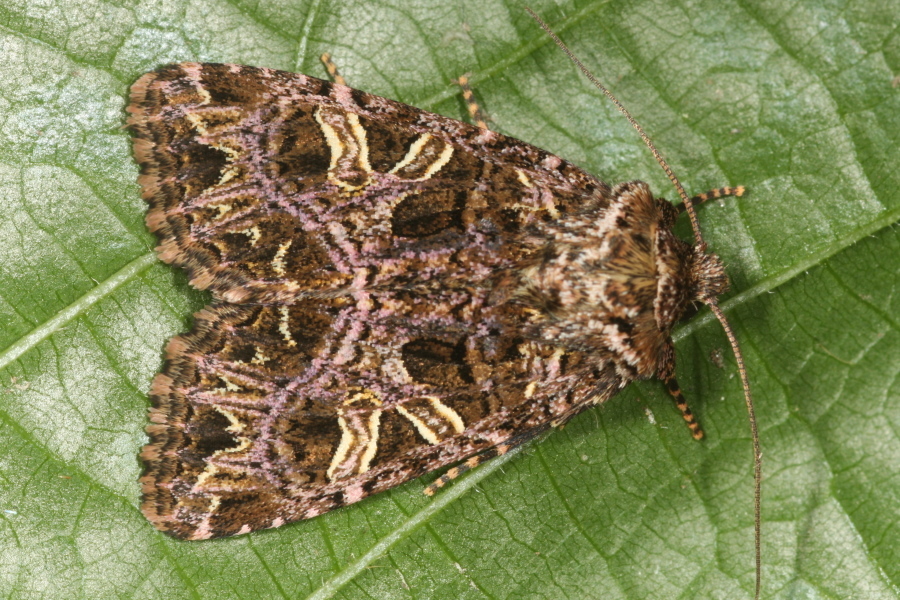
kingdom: Animalia
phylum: Arthropoda
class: Insecta
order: Lepidoptera
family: Noctuidae
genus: Sideridis
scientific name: Sideridis rivularis
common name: Campion
